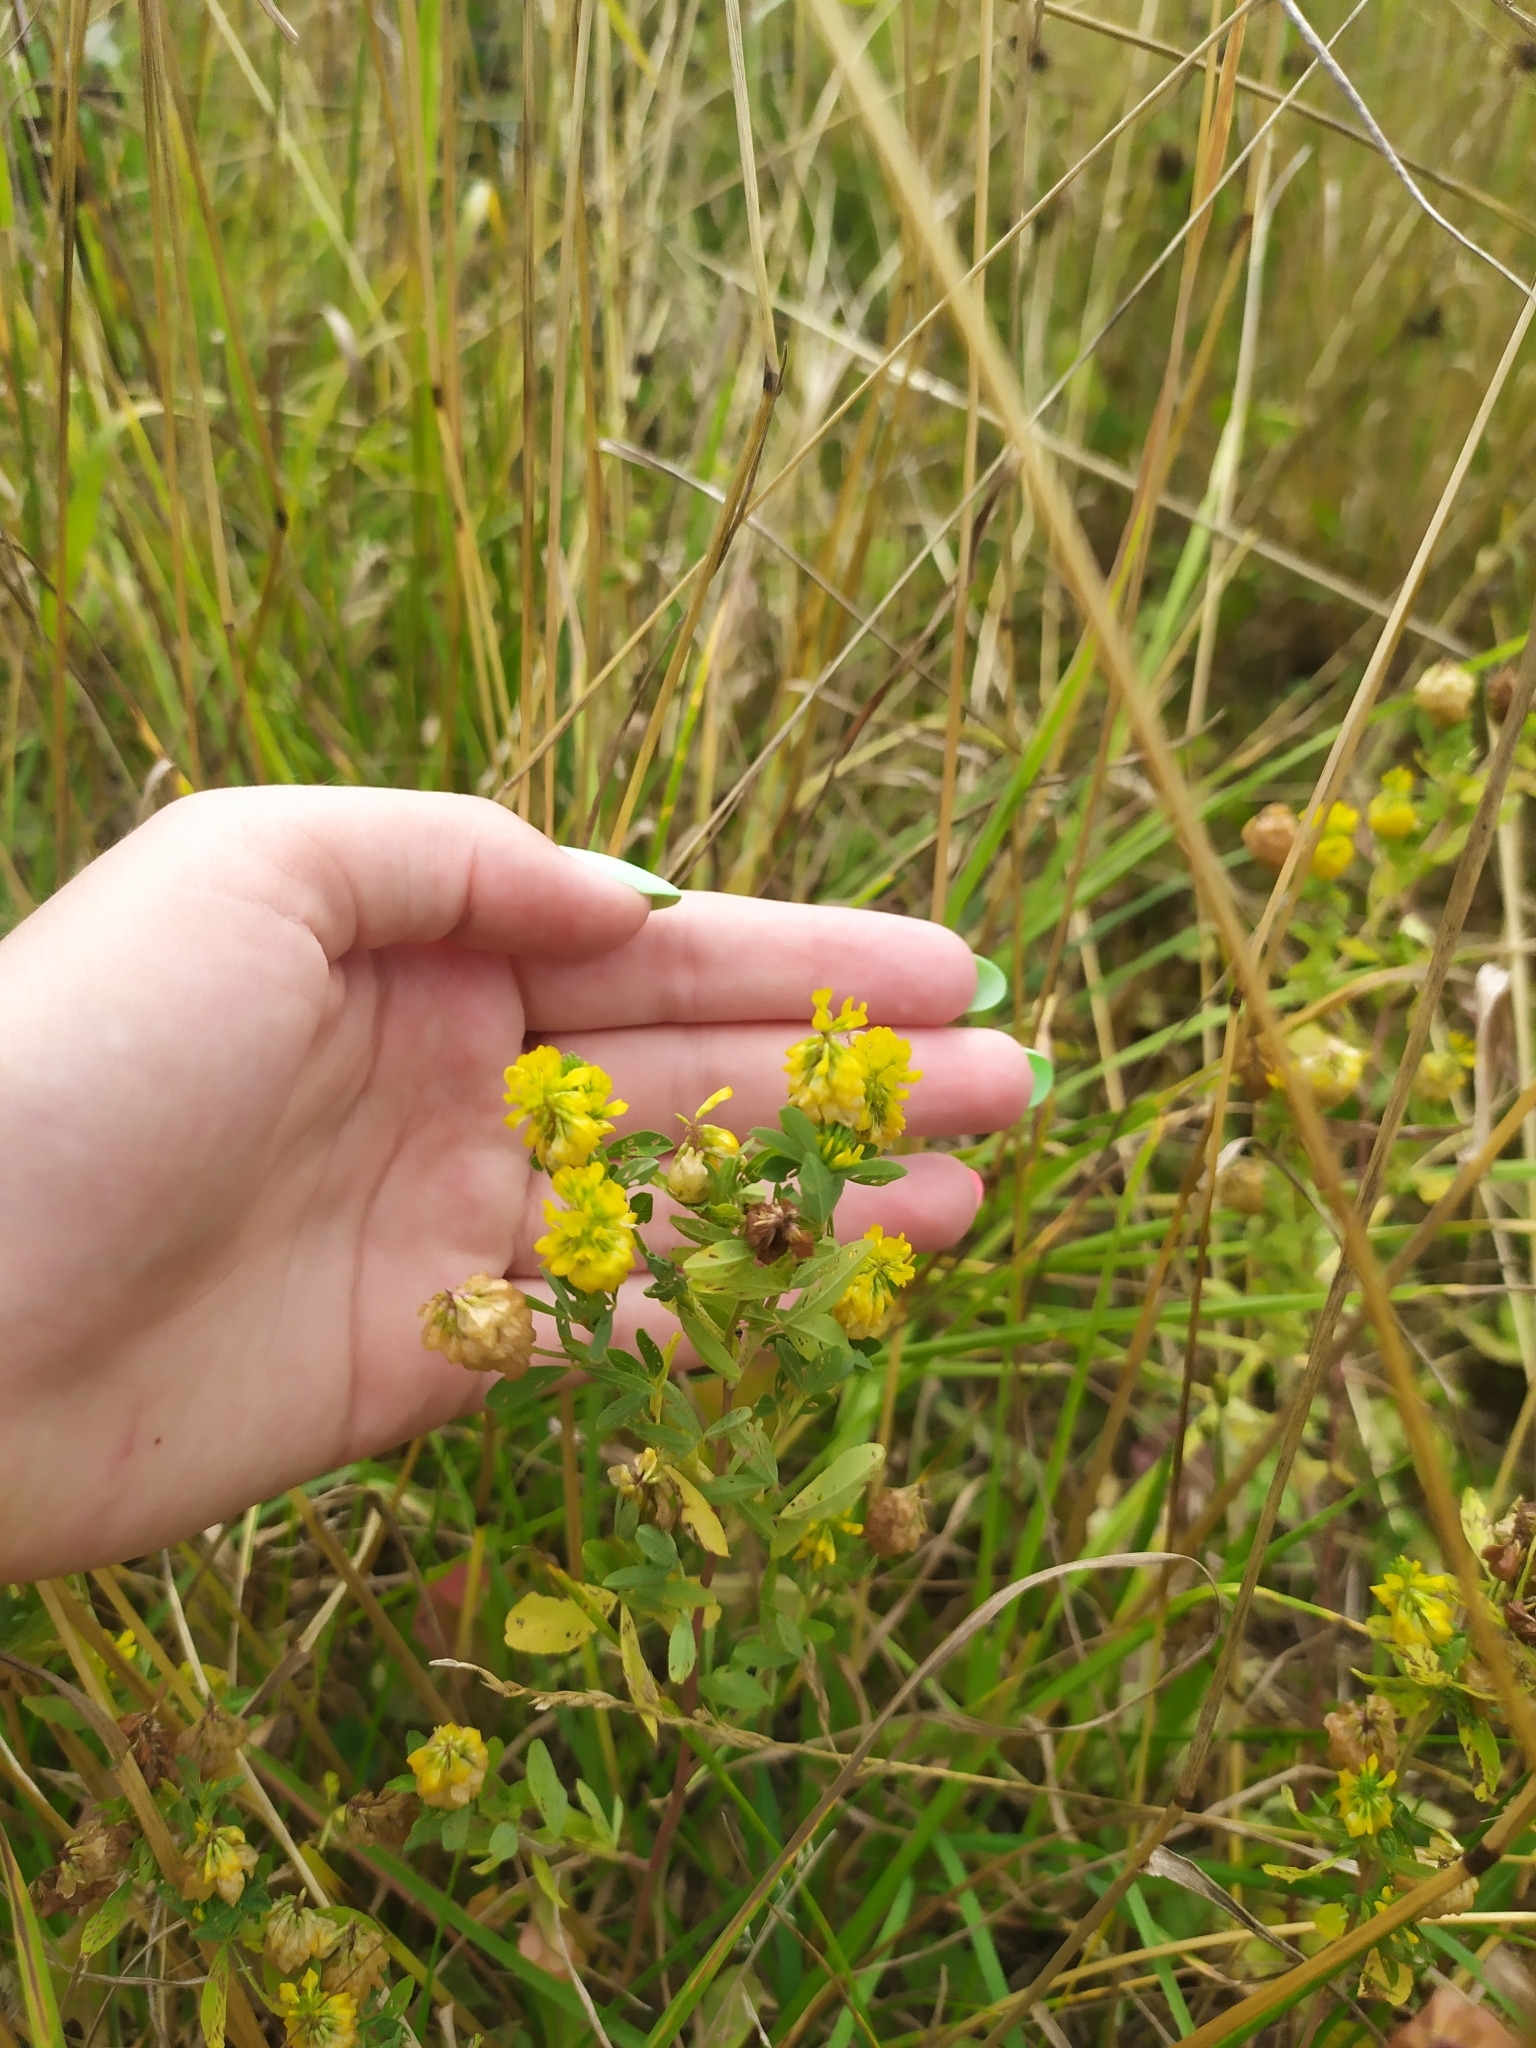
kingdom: Plantae
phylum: Tracheophyta
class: Magnoliopsida
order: Fabales
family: Fabaceae
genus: Trifolium
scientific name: Trifolium aureum
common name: Golden clover
